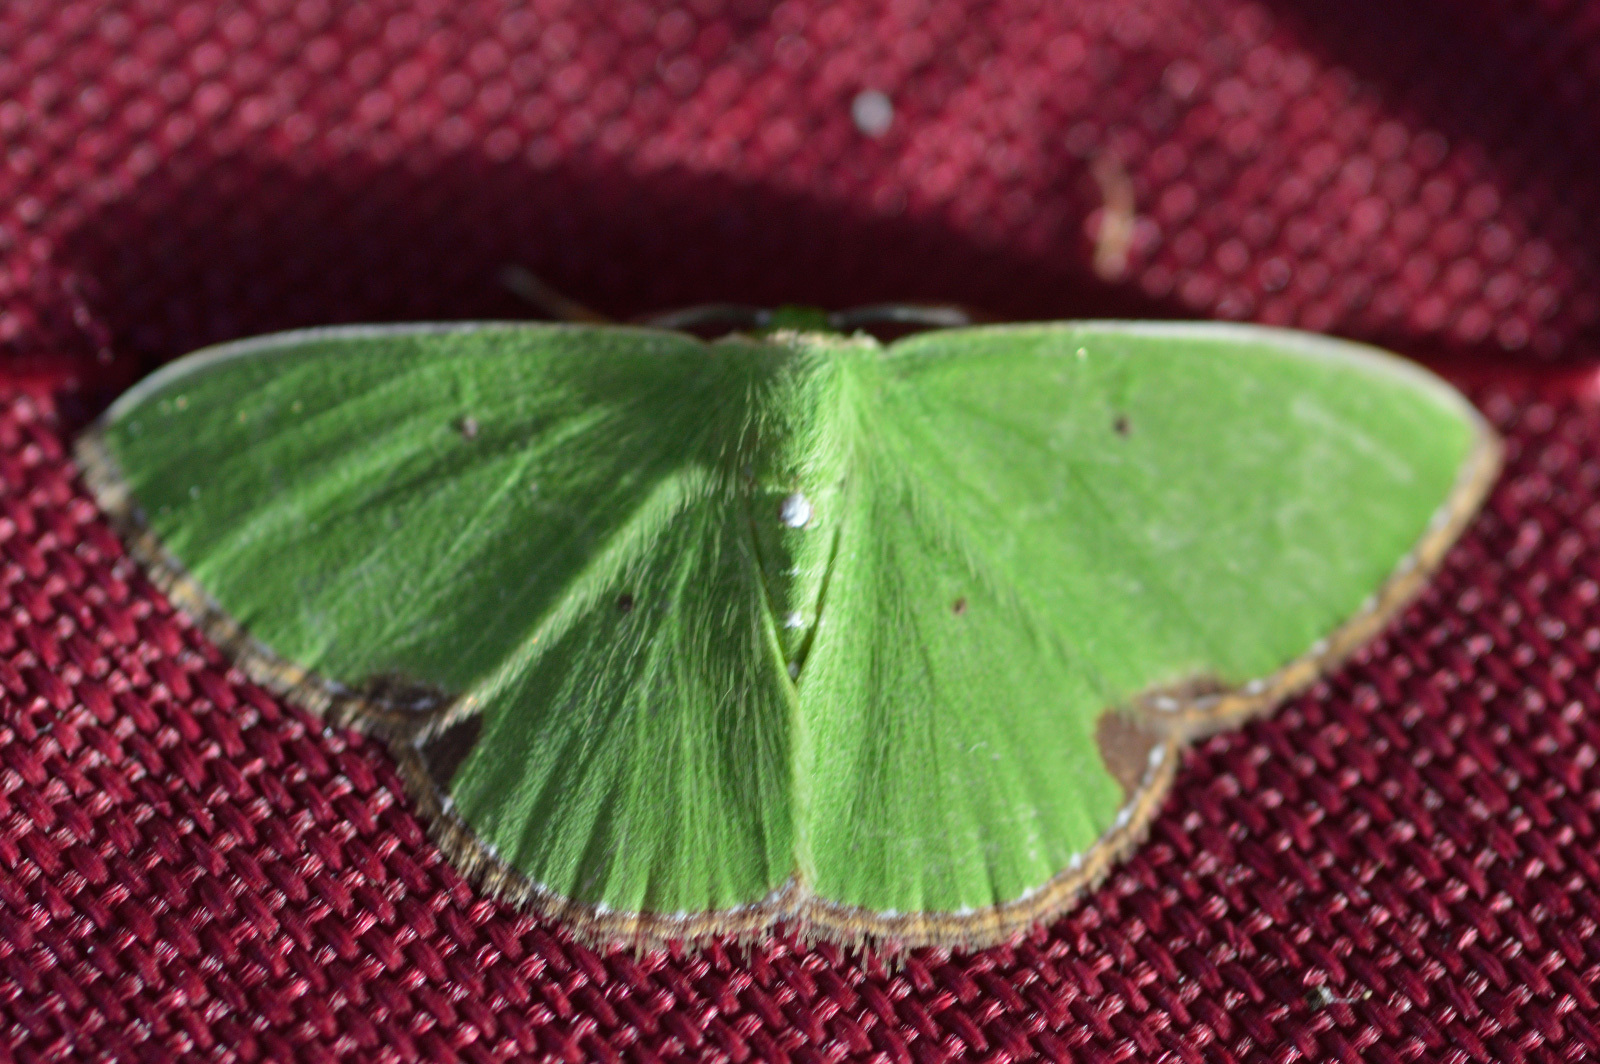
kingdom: Animalia
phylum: Arthropoda
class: Insecta
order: Lepidoptera
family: Geometridae
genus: Comibaena
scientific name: Comibaena quadrinotata
